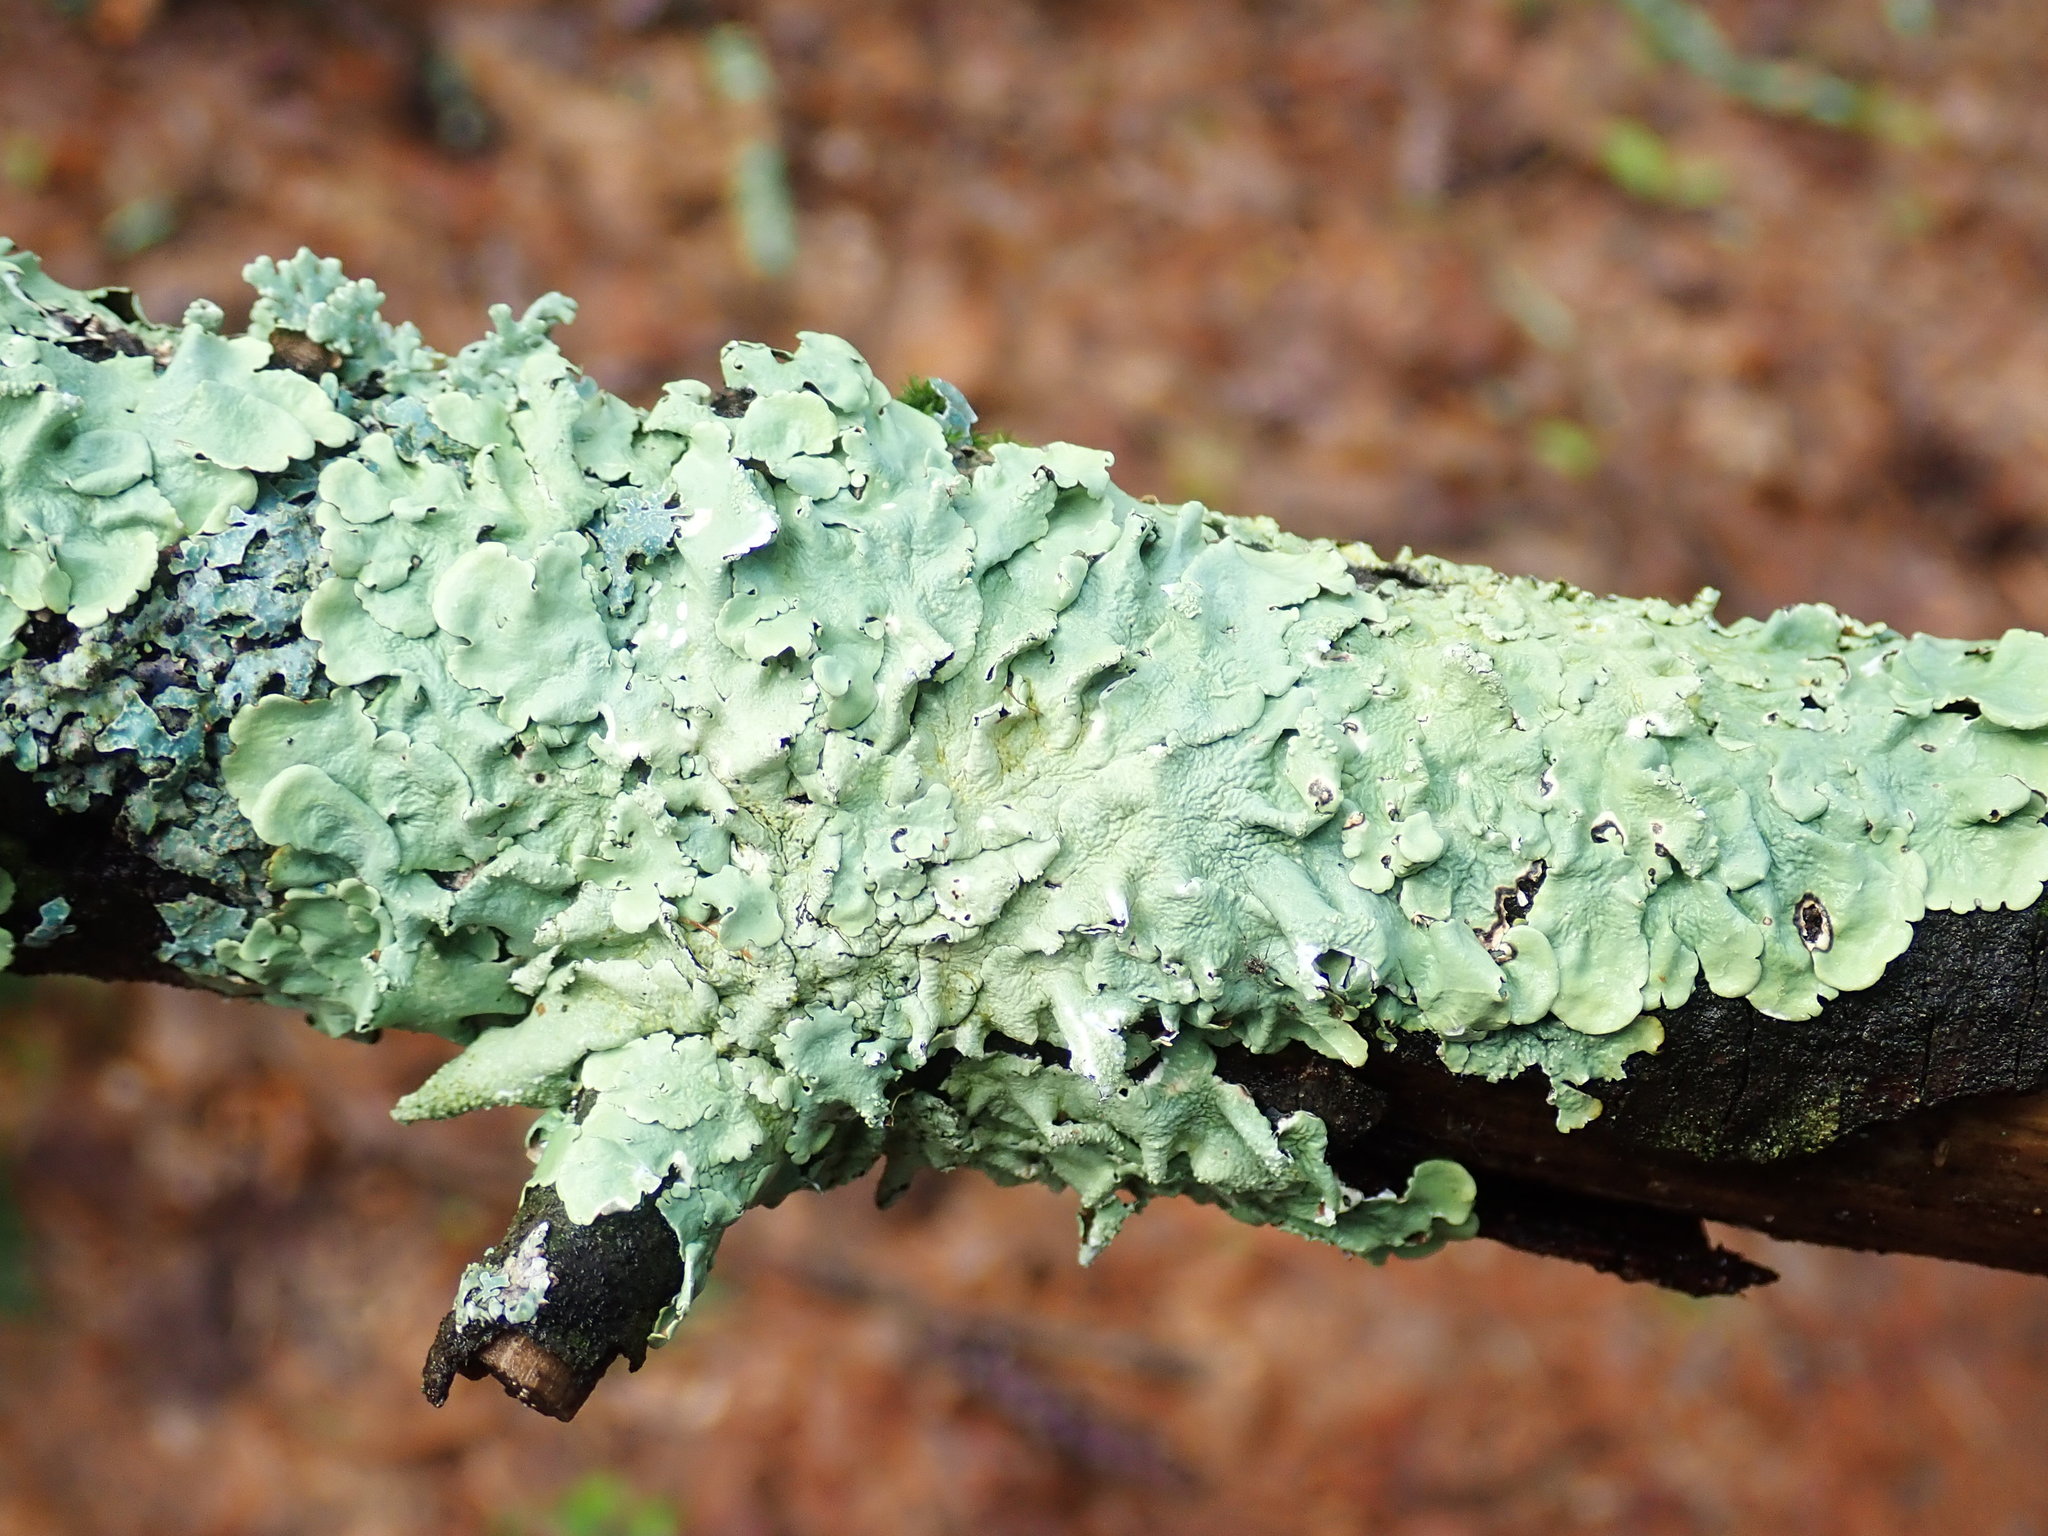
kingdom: Fungi
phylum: Ascomycota
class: Lecanoromycetes
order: Lecanorales
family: Parmeliaceae
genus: Flavoparmelia
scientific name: Flavoparmelia caperata
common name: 40-mile per hour lichen
